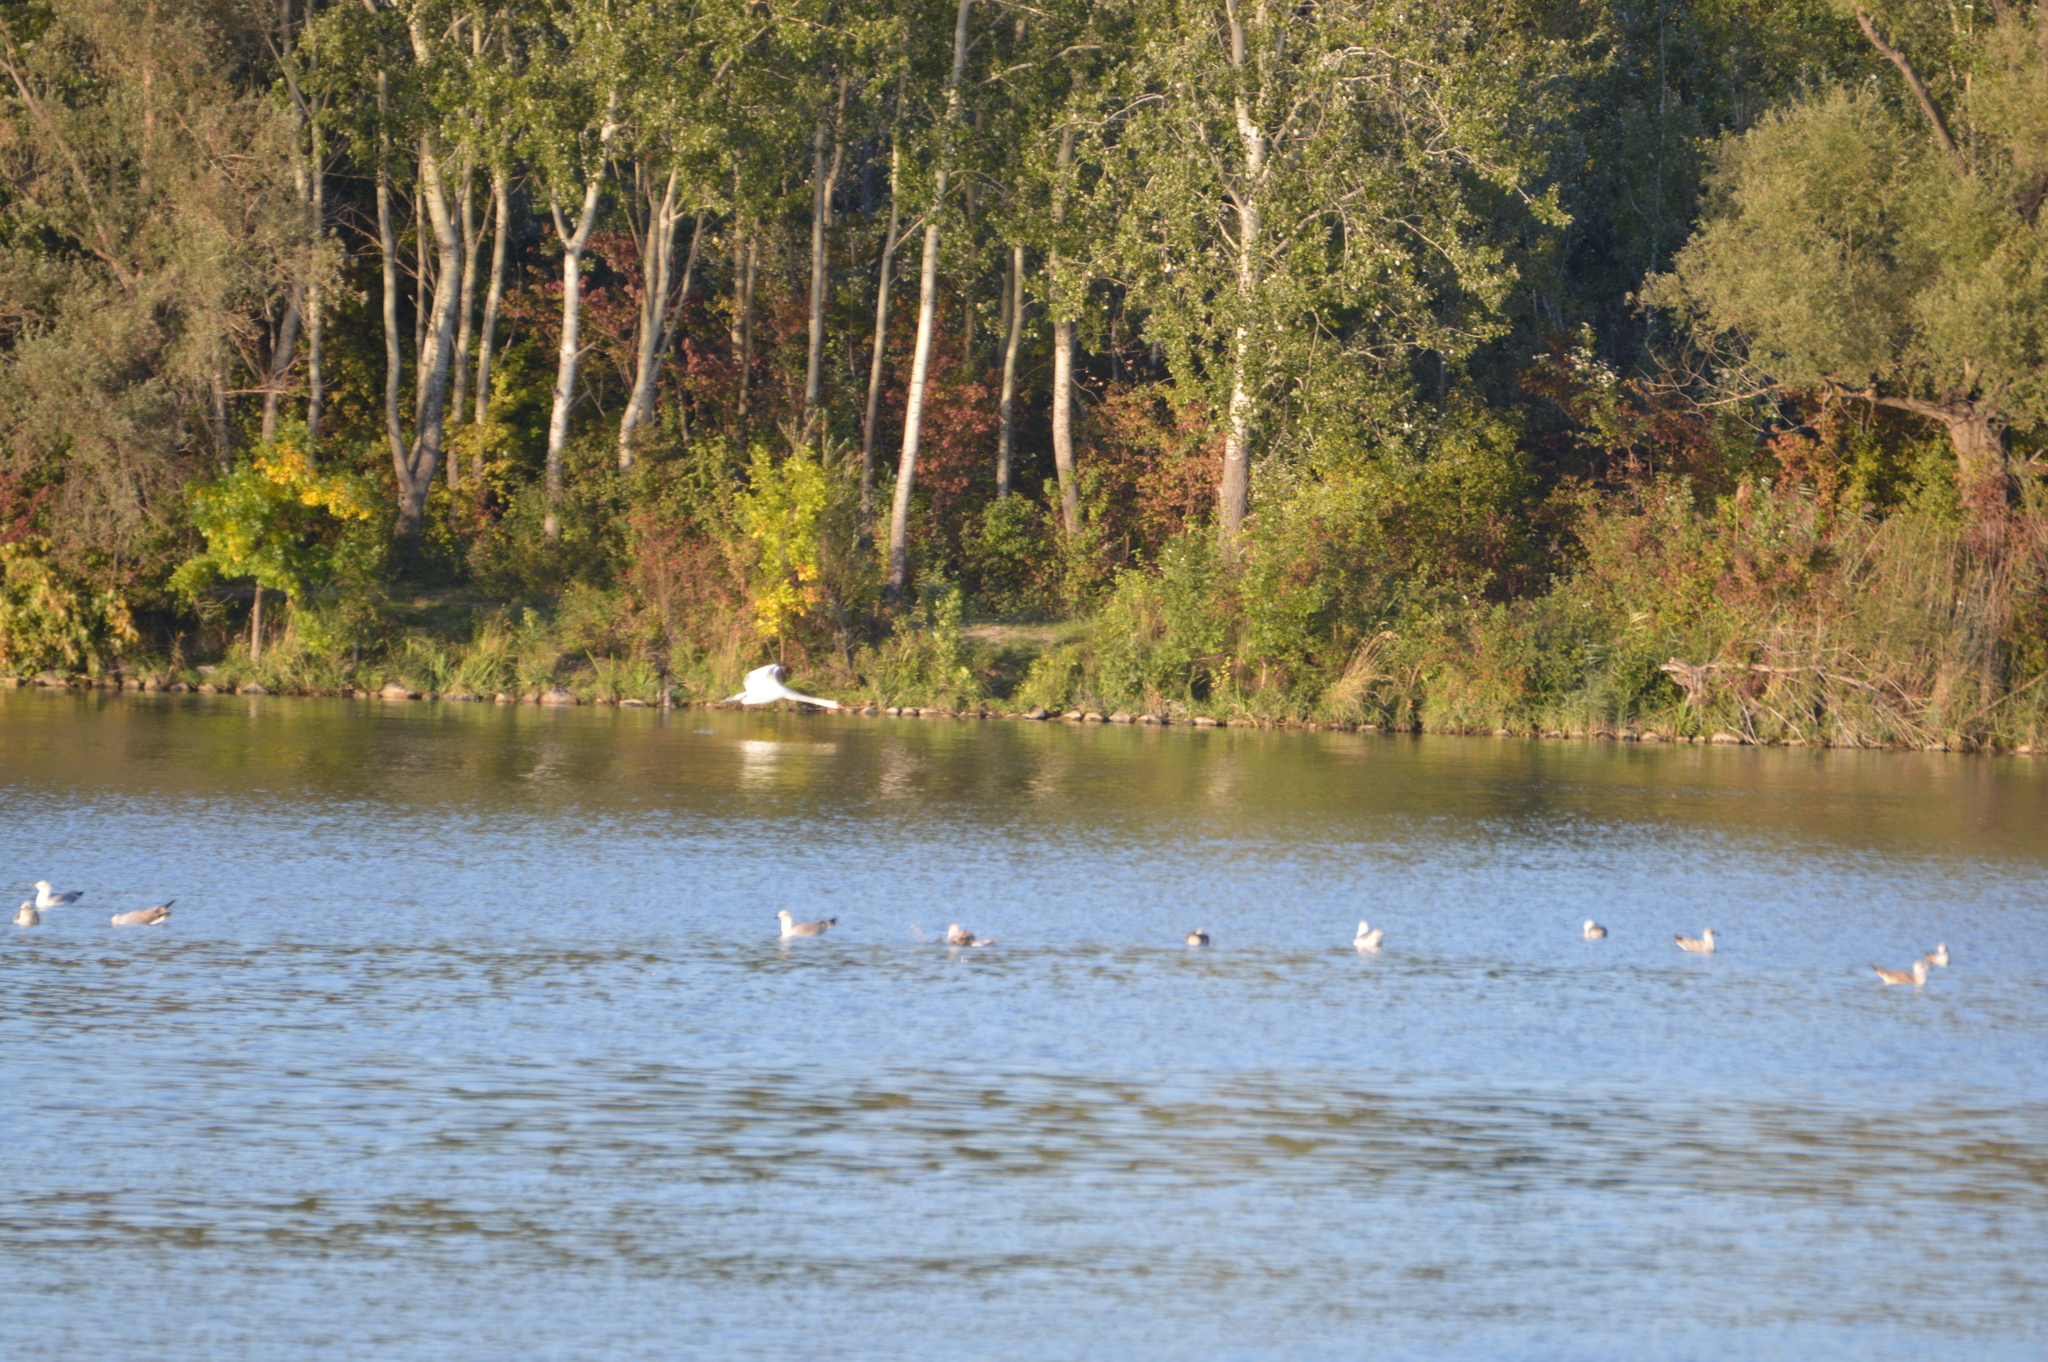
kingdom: Animalia
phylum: Chordata
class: Aves
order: Anseriformes
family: Anatidae
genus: Cygnus
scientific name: Cygnus olor
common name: Mute swan
